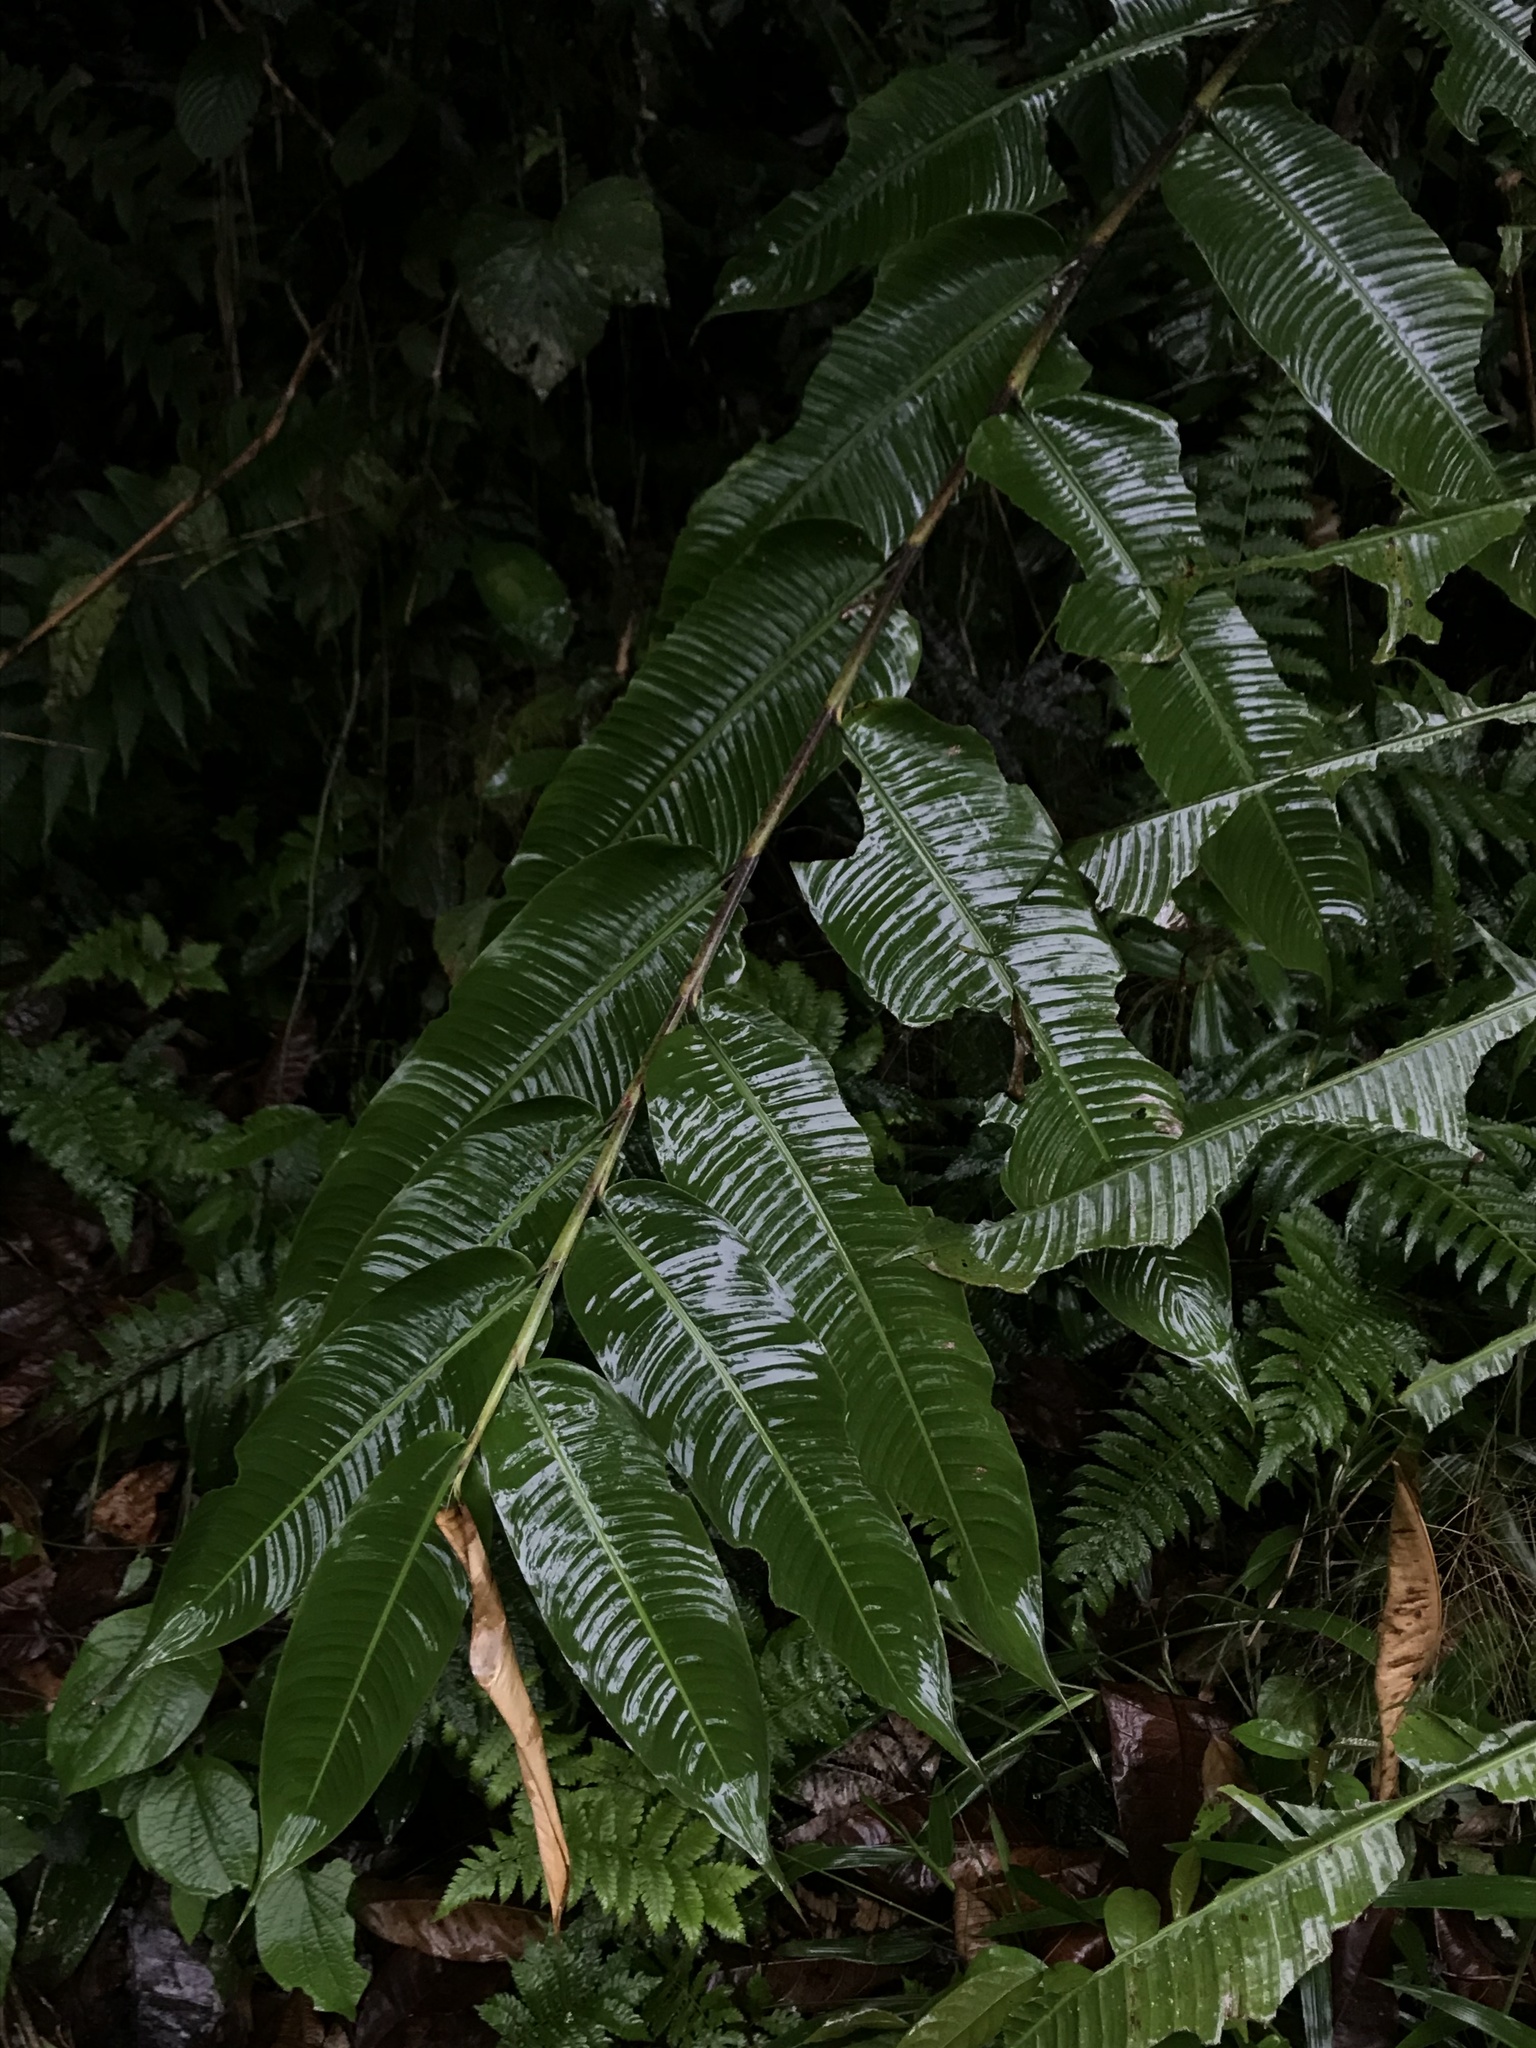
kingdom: Plantae
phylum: Tracheophyta
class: Liliopsida
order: Zingiberales
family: Heliconiaceae
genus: Heliconia
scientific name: Heliconia hirsuta
